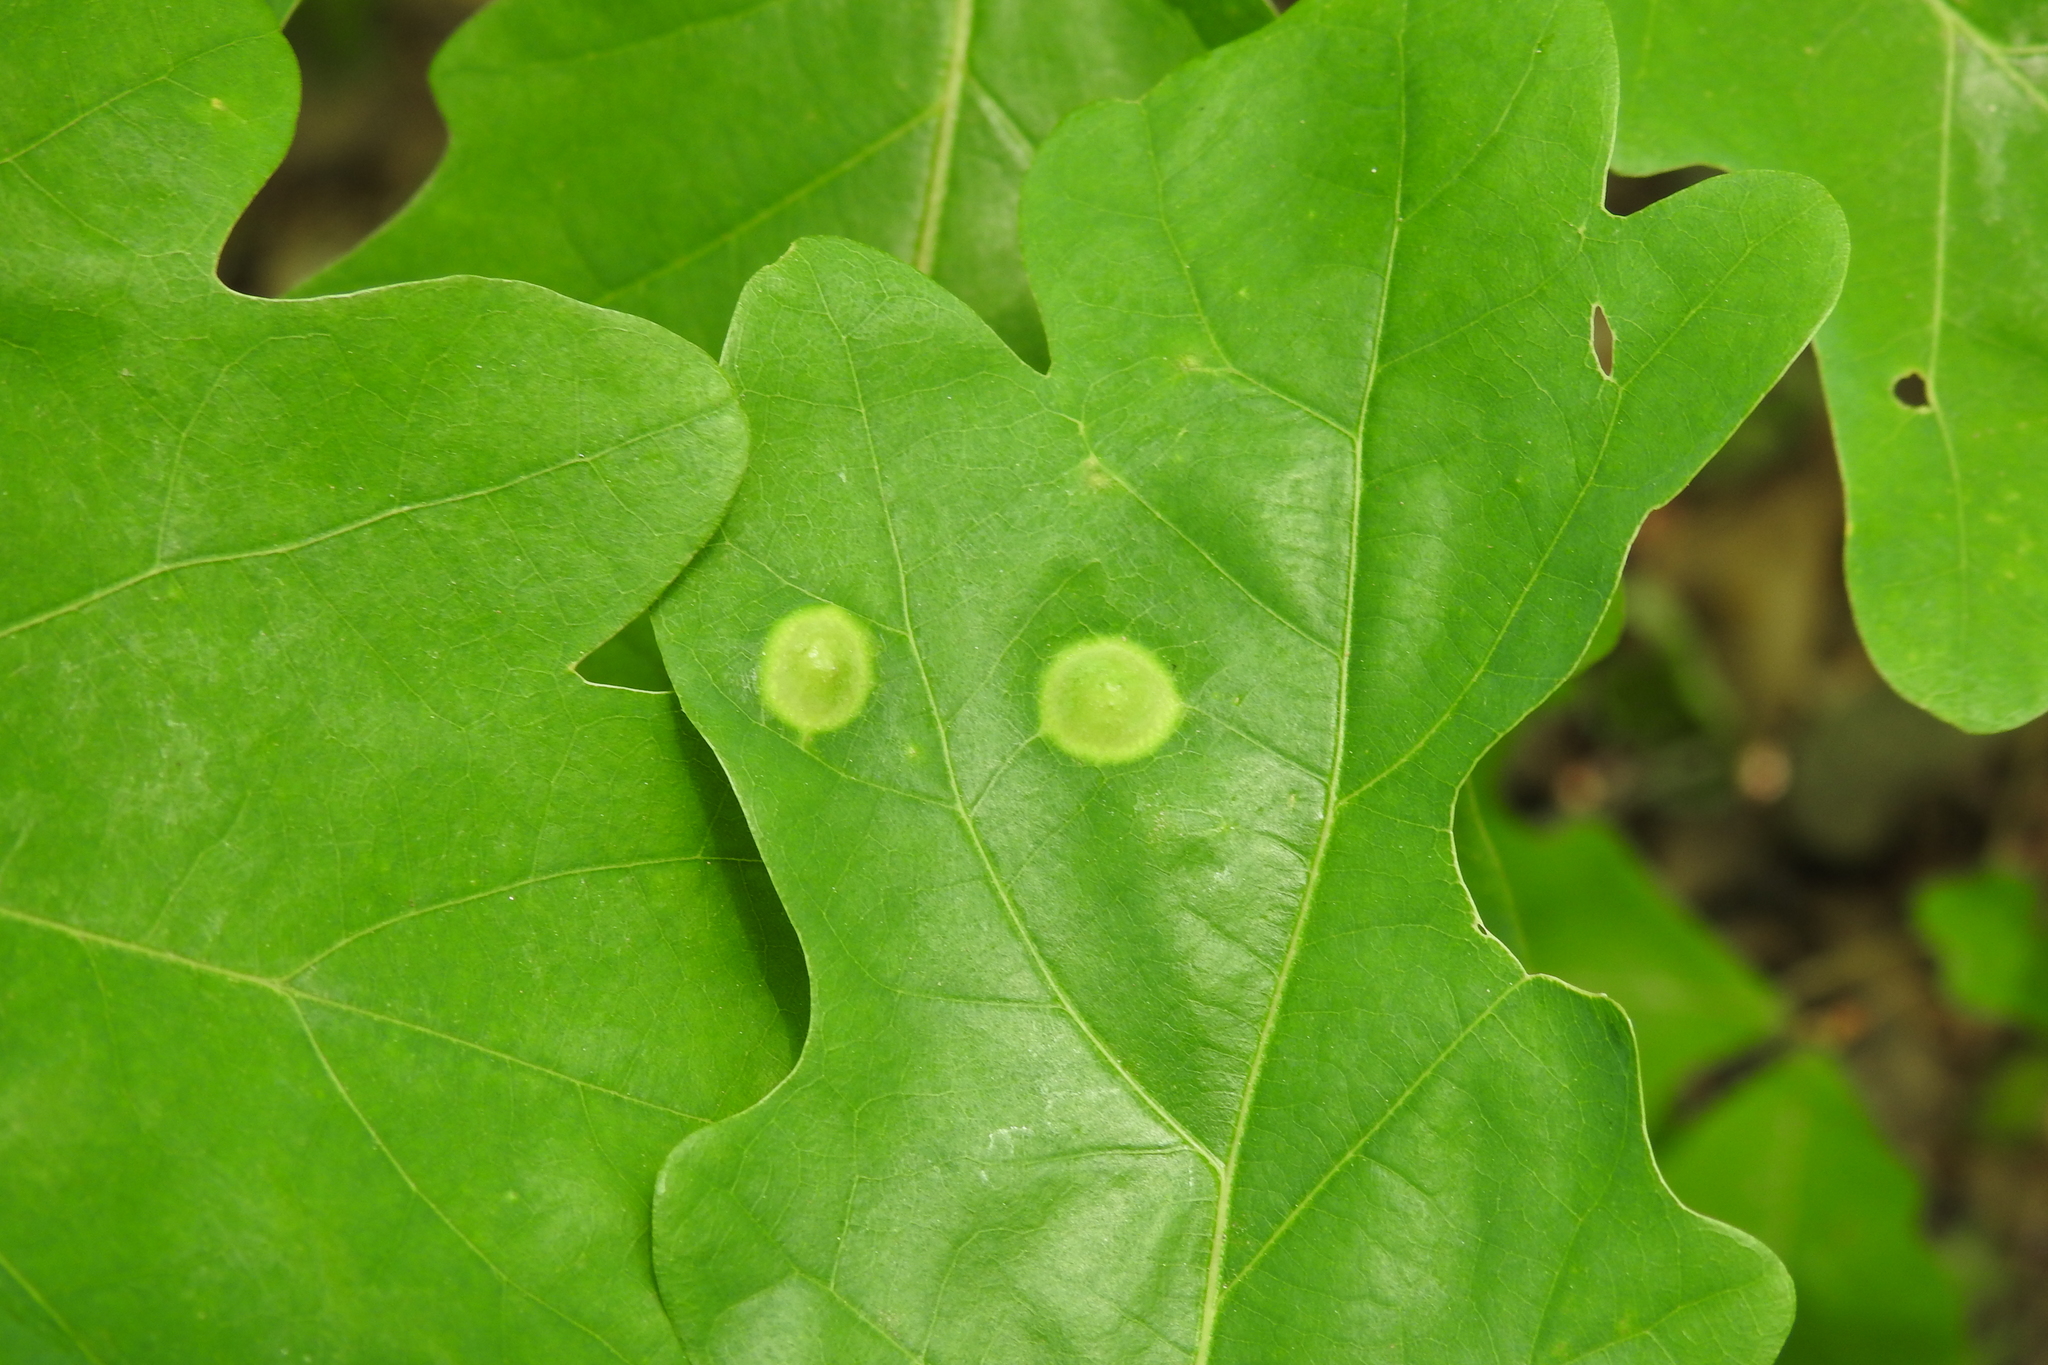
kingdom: Animalia
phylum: Arthropoda
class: Insecta
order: Hymenoptera
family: Cynipidae
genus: Callirhytis
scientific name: Callirhytis
